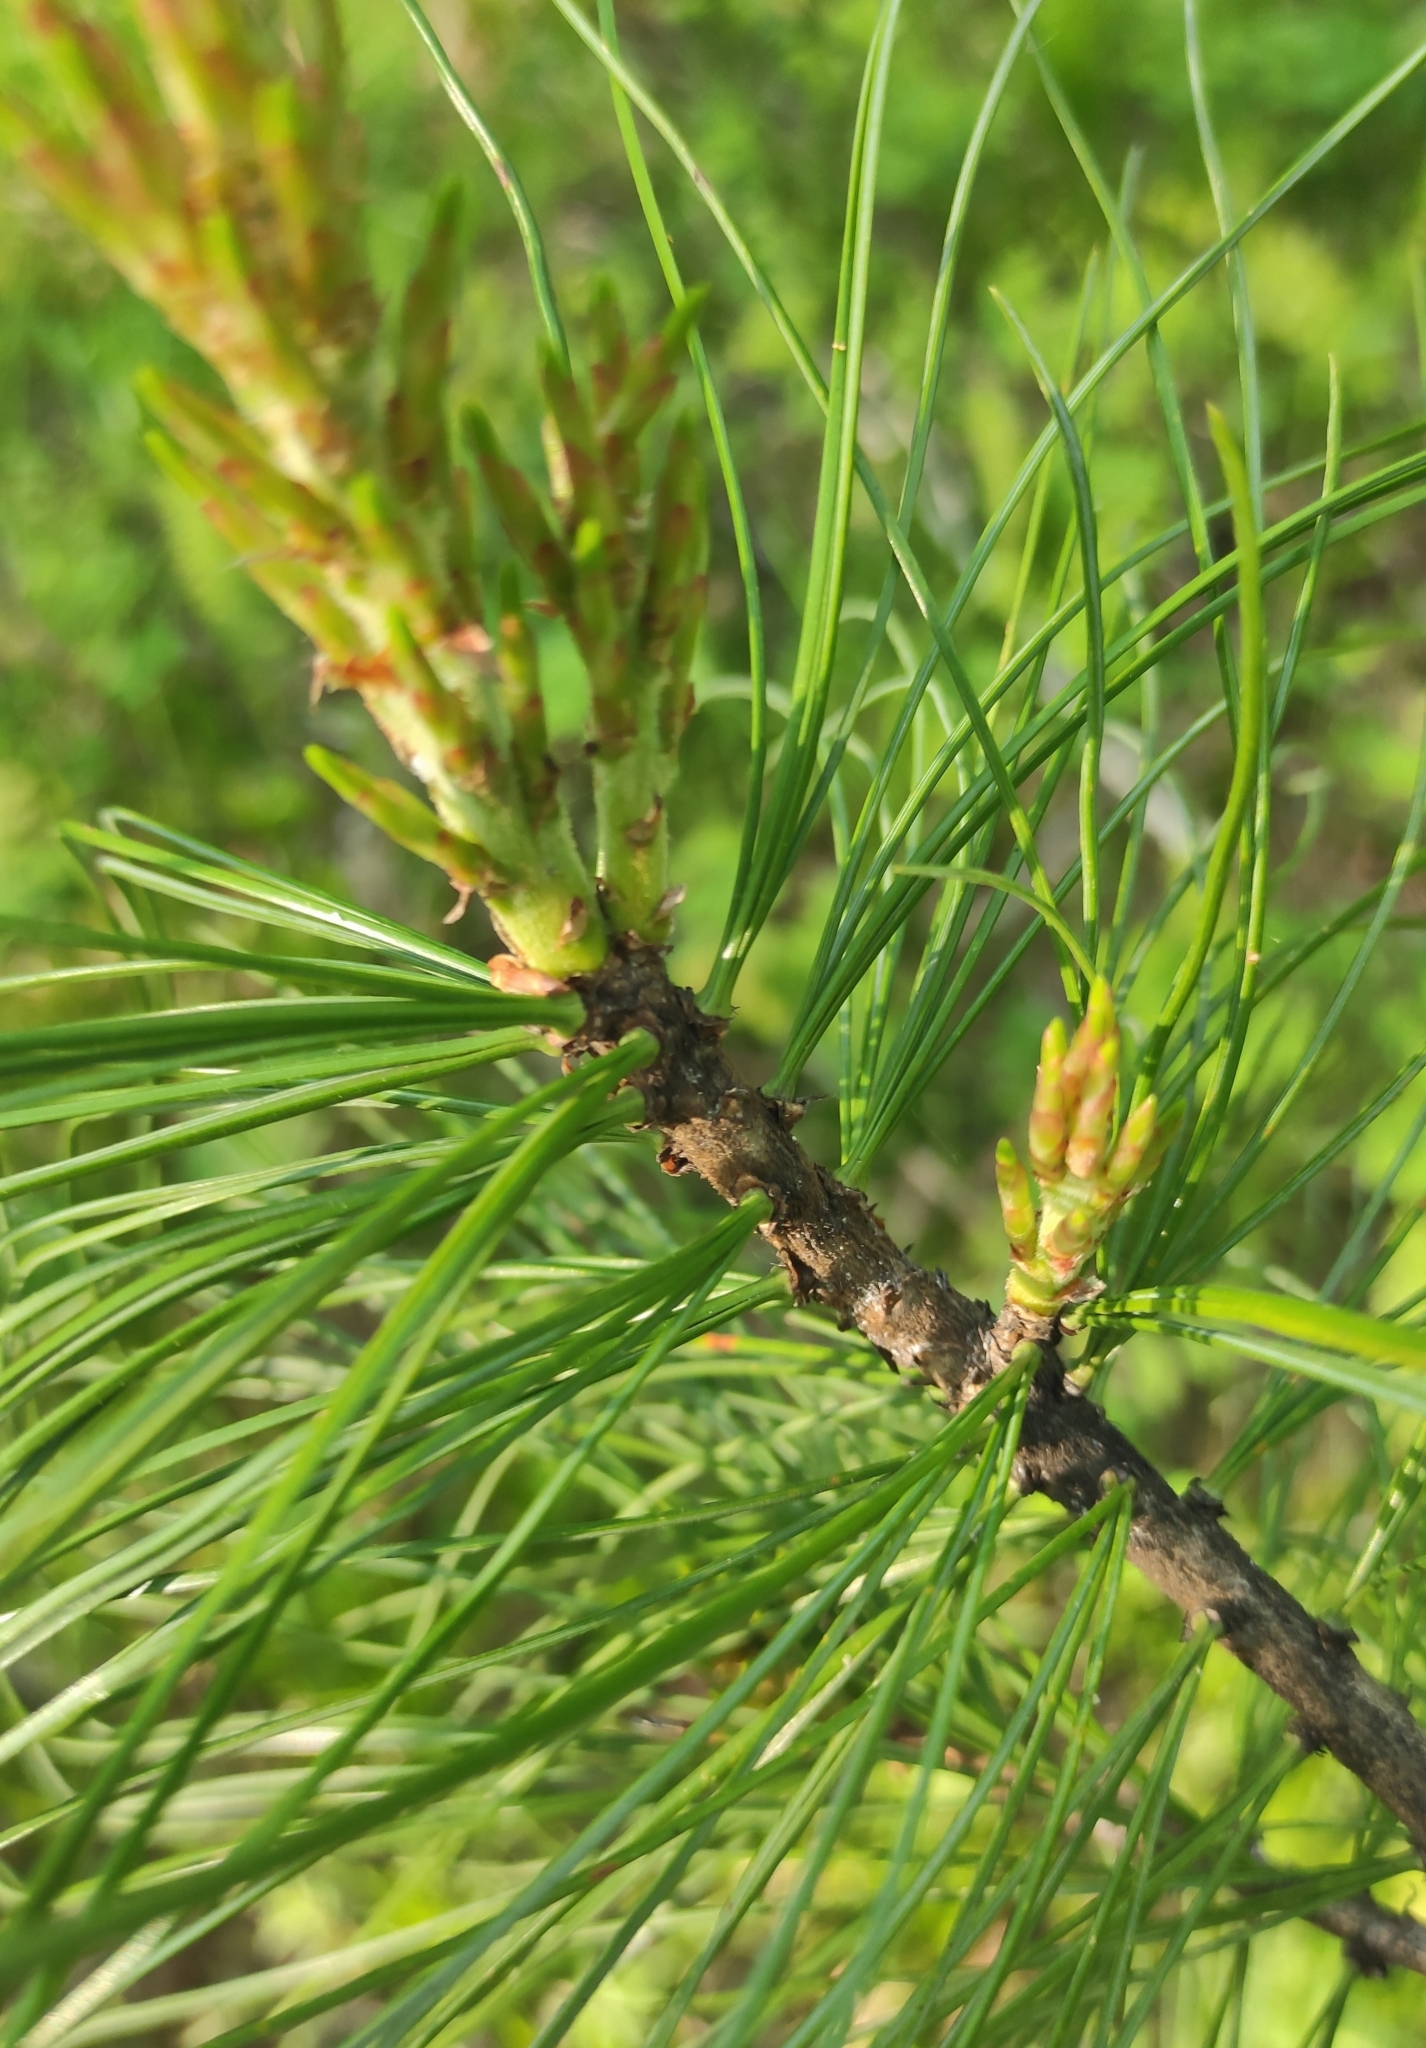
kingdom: Plantae
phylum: Tracheophyta
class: Pinopsida
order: Pinales
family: Pinaceae
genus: Pinus
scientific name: Pinus sibirica
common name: Siberian pine
